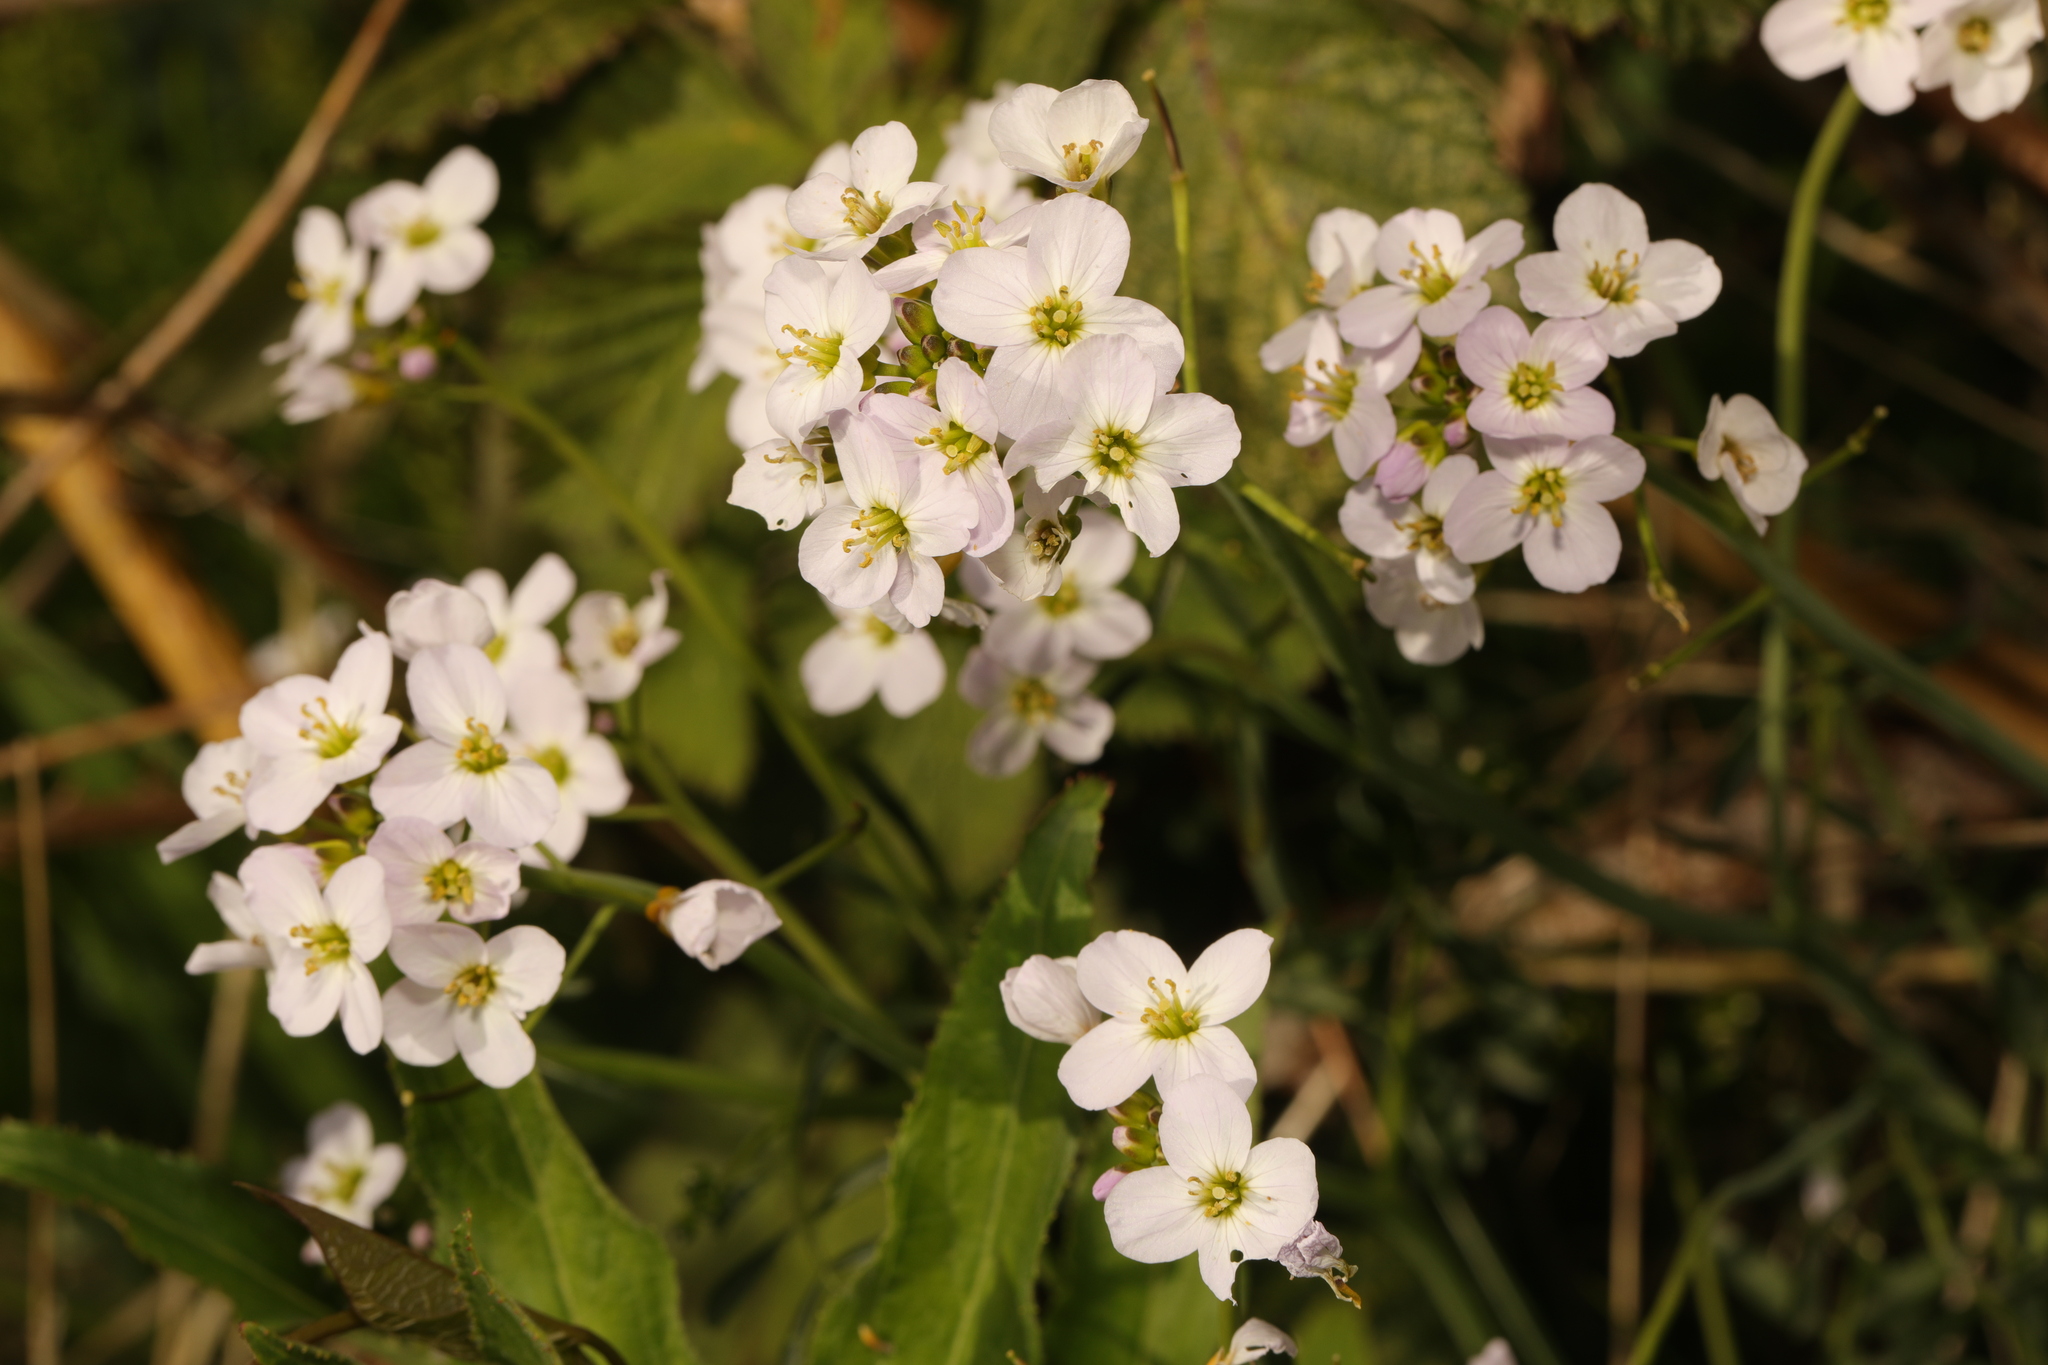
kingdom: Plantae
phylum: Tracheophyta
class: Magnoliopsida
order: Brassicales
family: Brassicaceae
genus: Cardamine
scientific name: Cardamine pratensis
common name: Cuckoo flower
